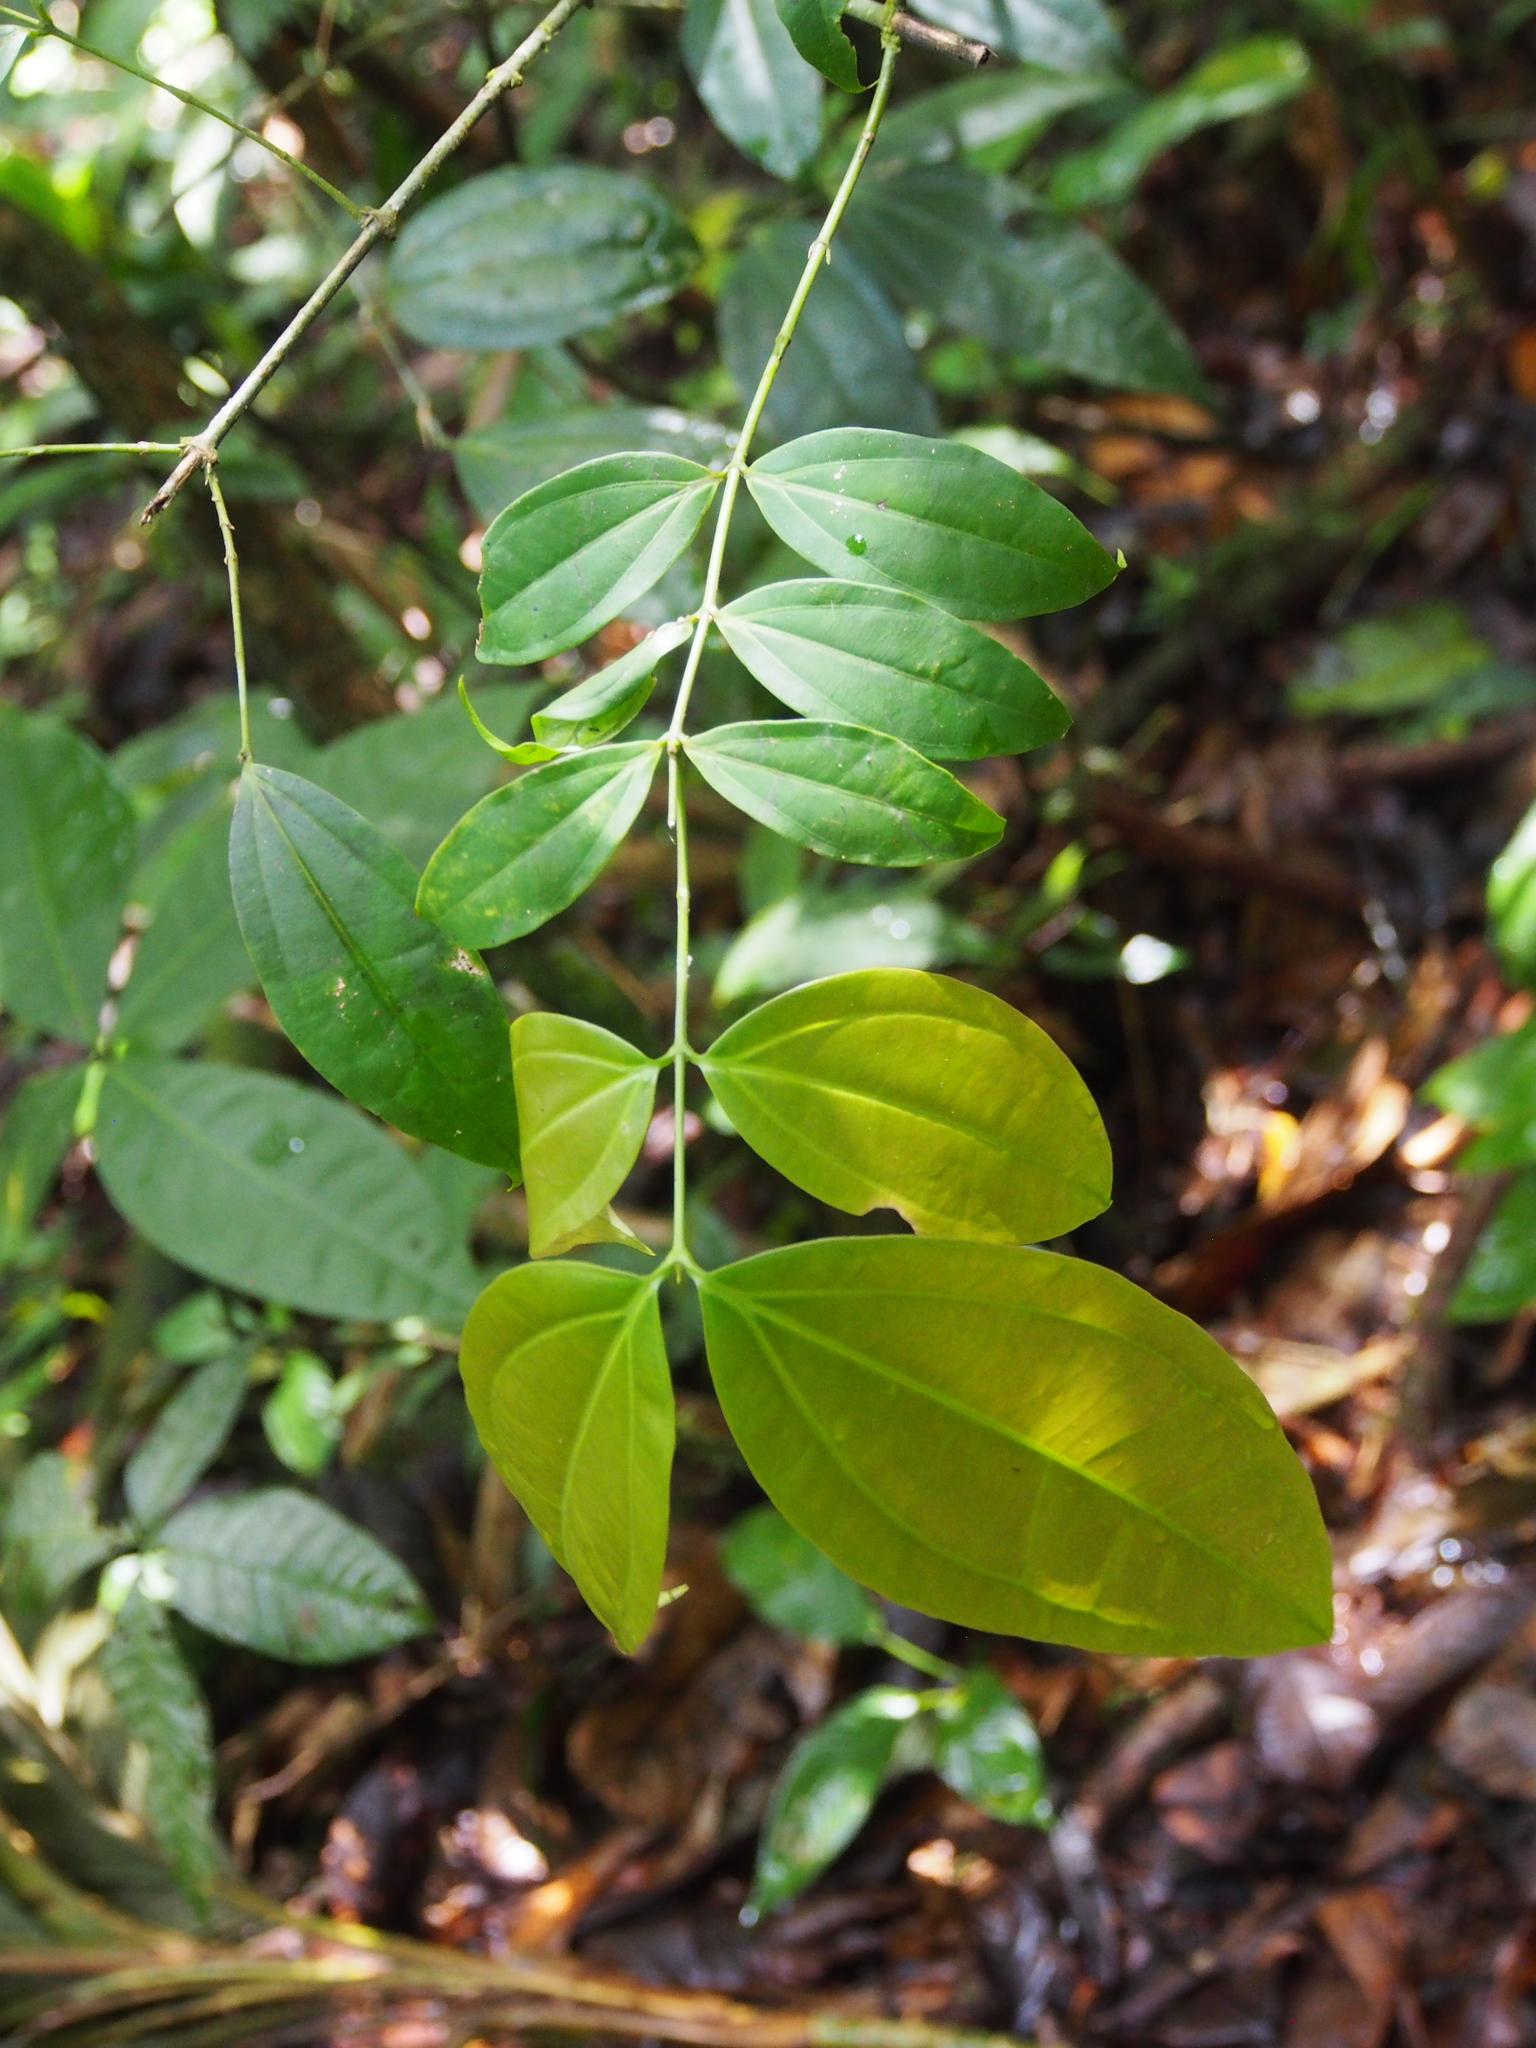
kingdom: Plantae
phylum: Tracheophyta
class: Magnoliopsida
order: Gentianales
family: Loganiaceae
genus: Strychnos
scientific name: Strychnos brachistantha
